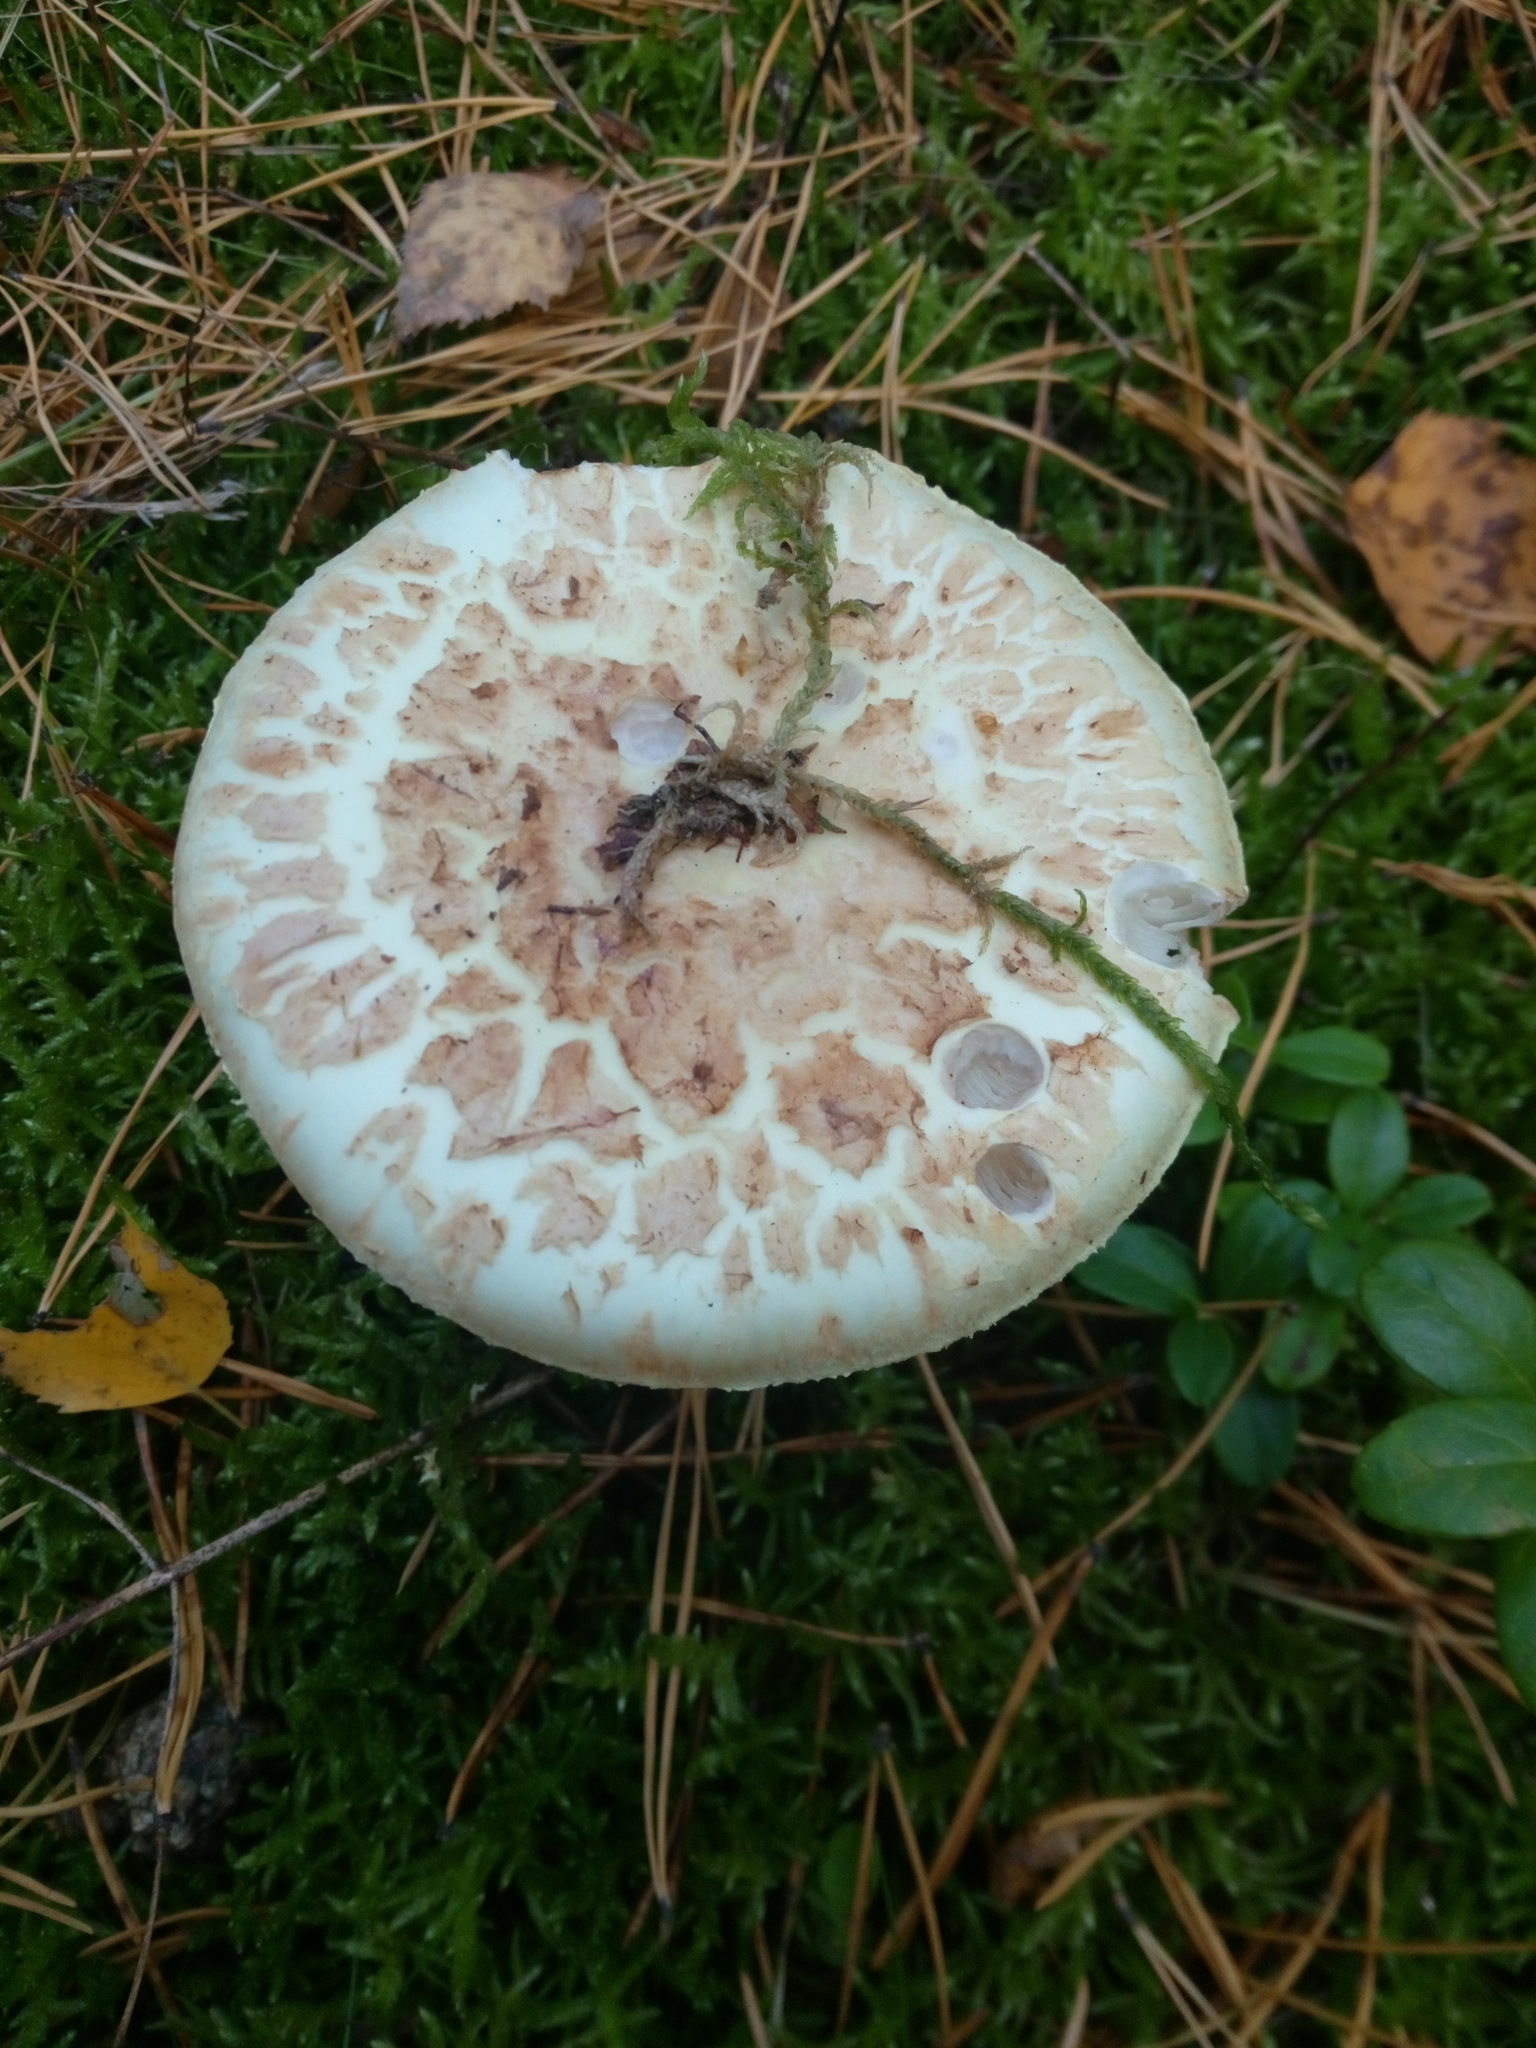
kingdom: Fungi
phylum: Basidiomycota
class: Agaricomycetes
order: Agaricales
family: Amanitaceae
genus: Amanita
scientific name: Amanita citrina
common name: False death-cap
